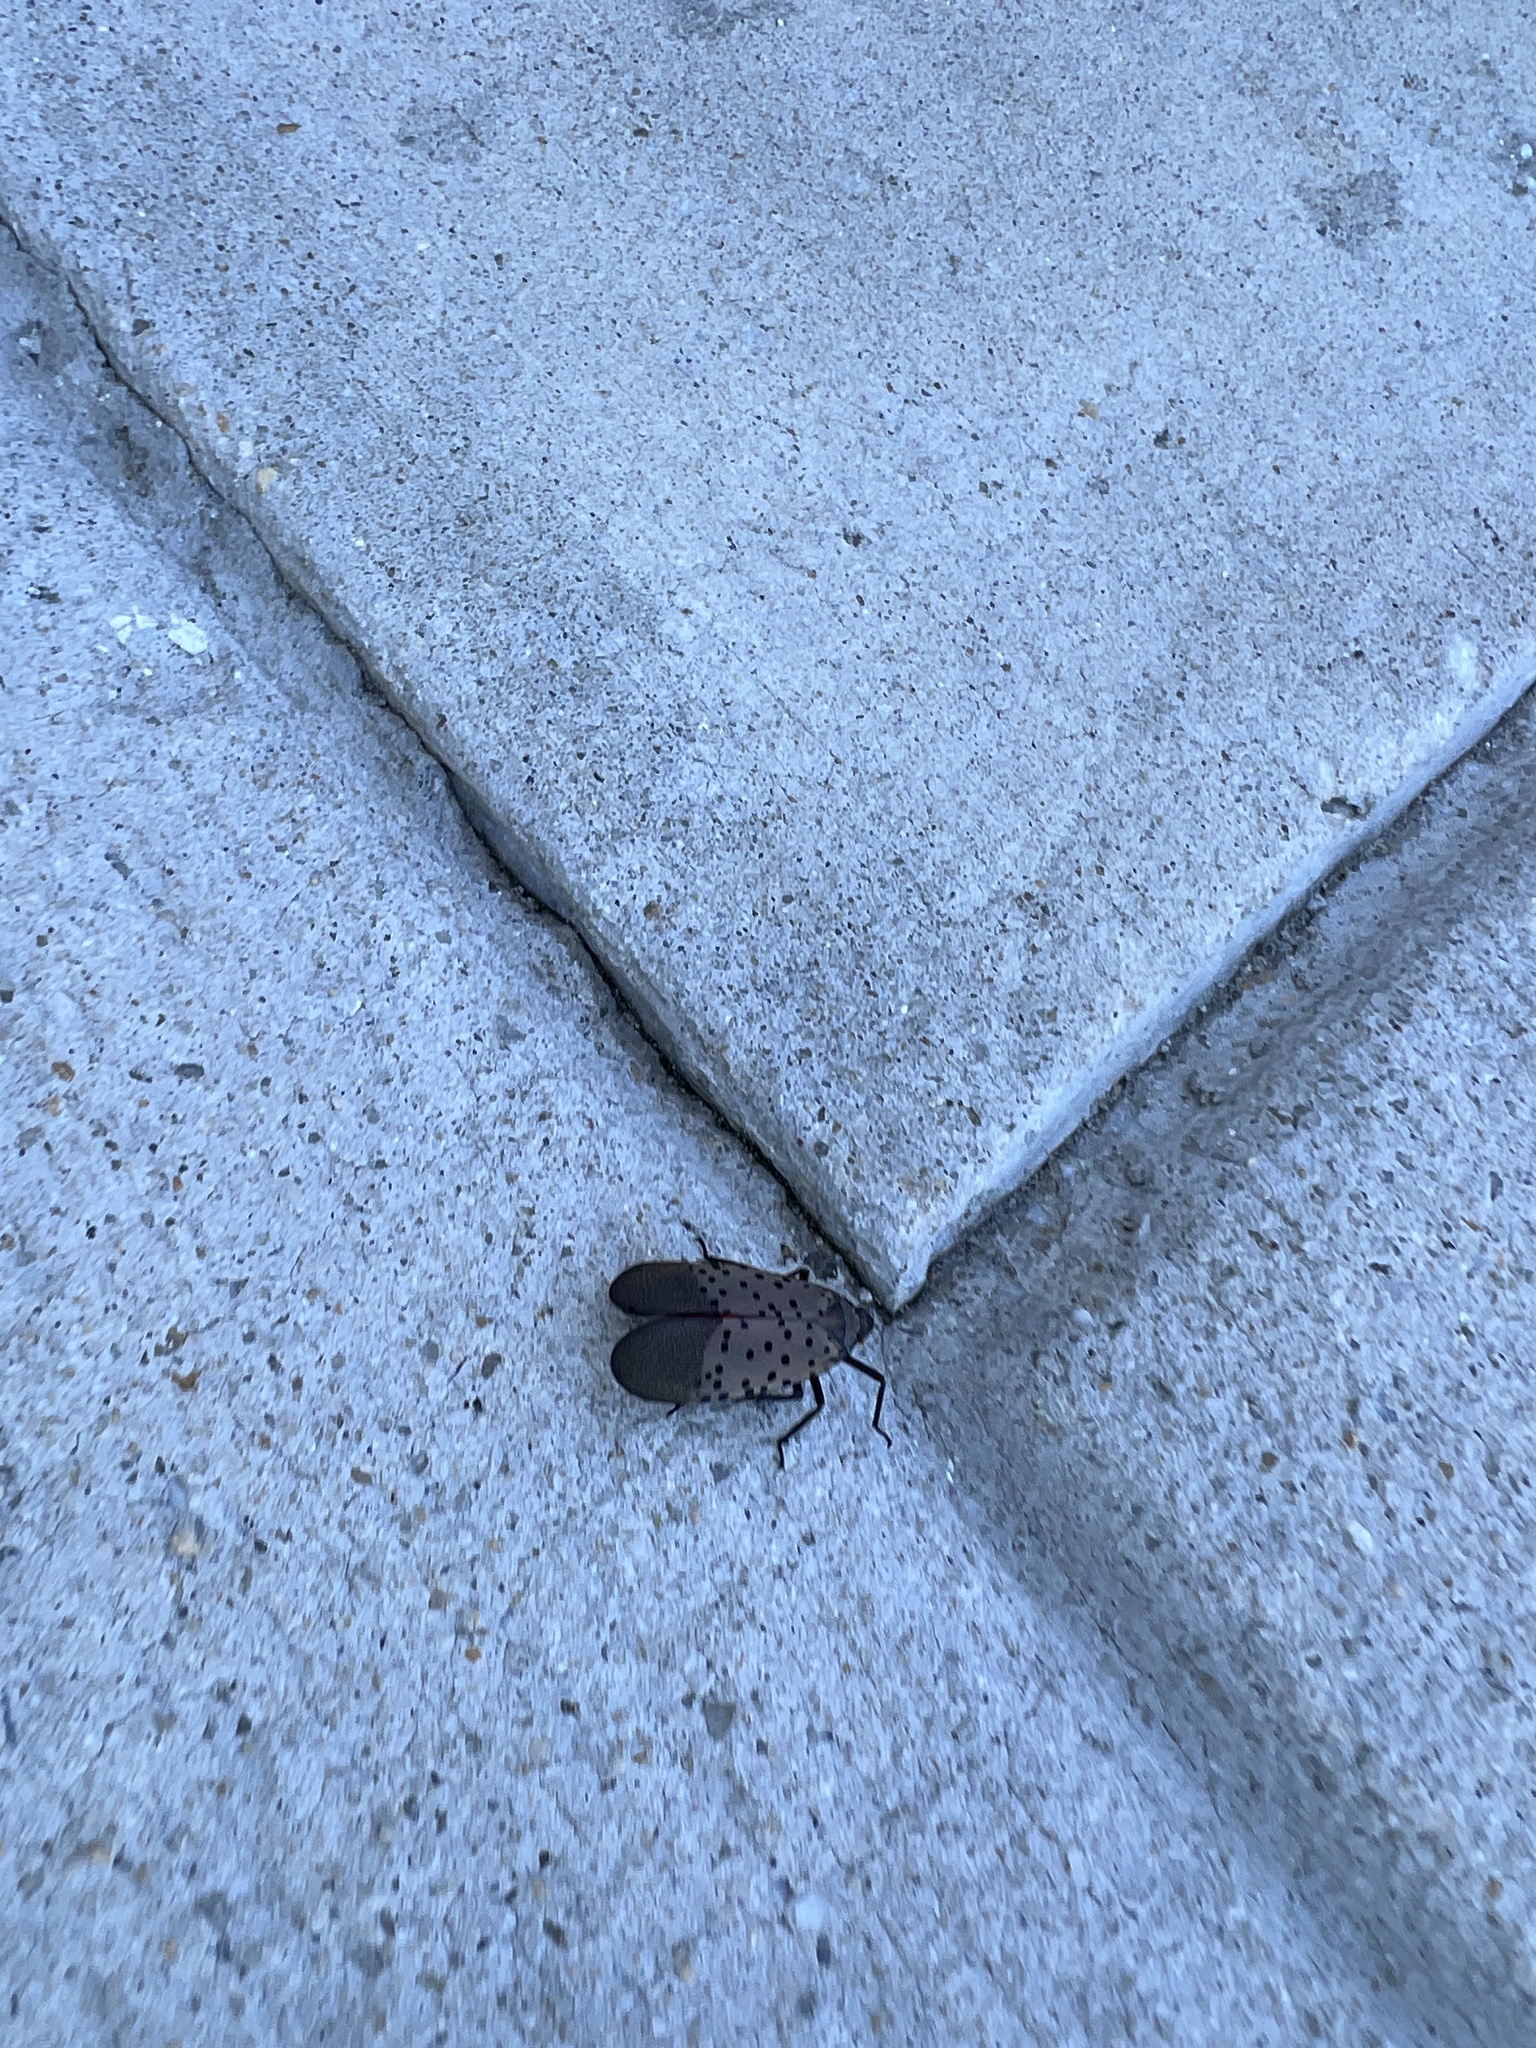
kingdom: Animalia
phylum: Arthropoda
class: Insecta
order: Hemiptera
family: Fulgoridae
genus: Lycorma
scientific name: Lycorma delicatula
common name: Spotted lanternfly
